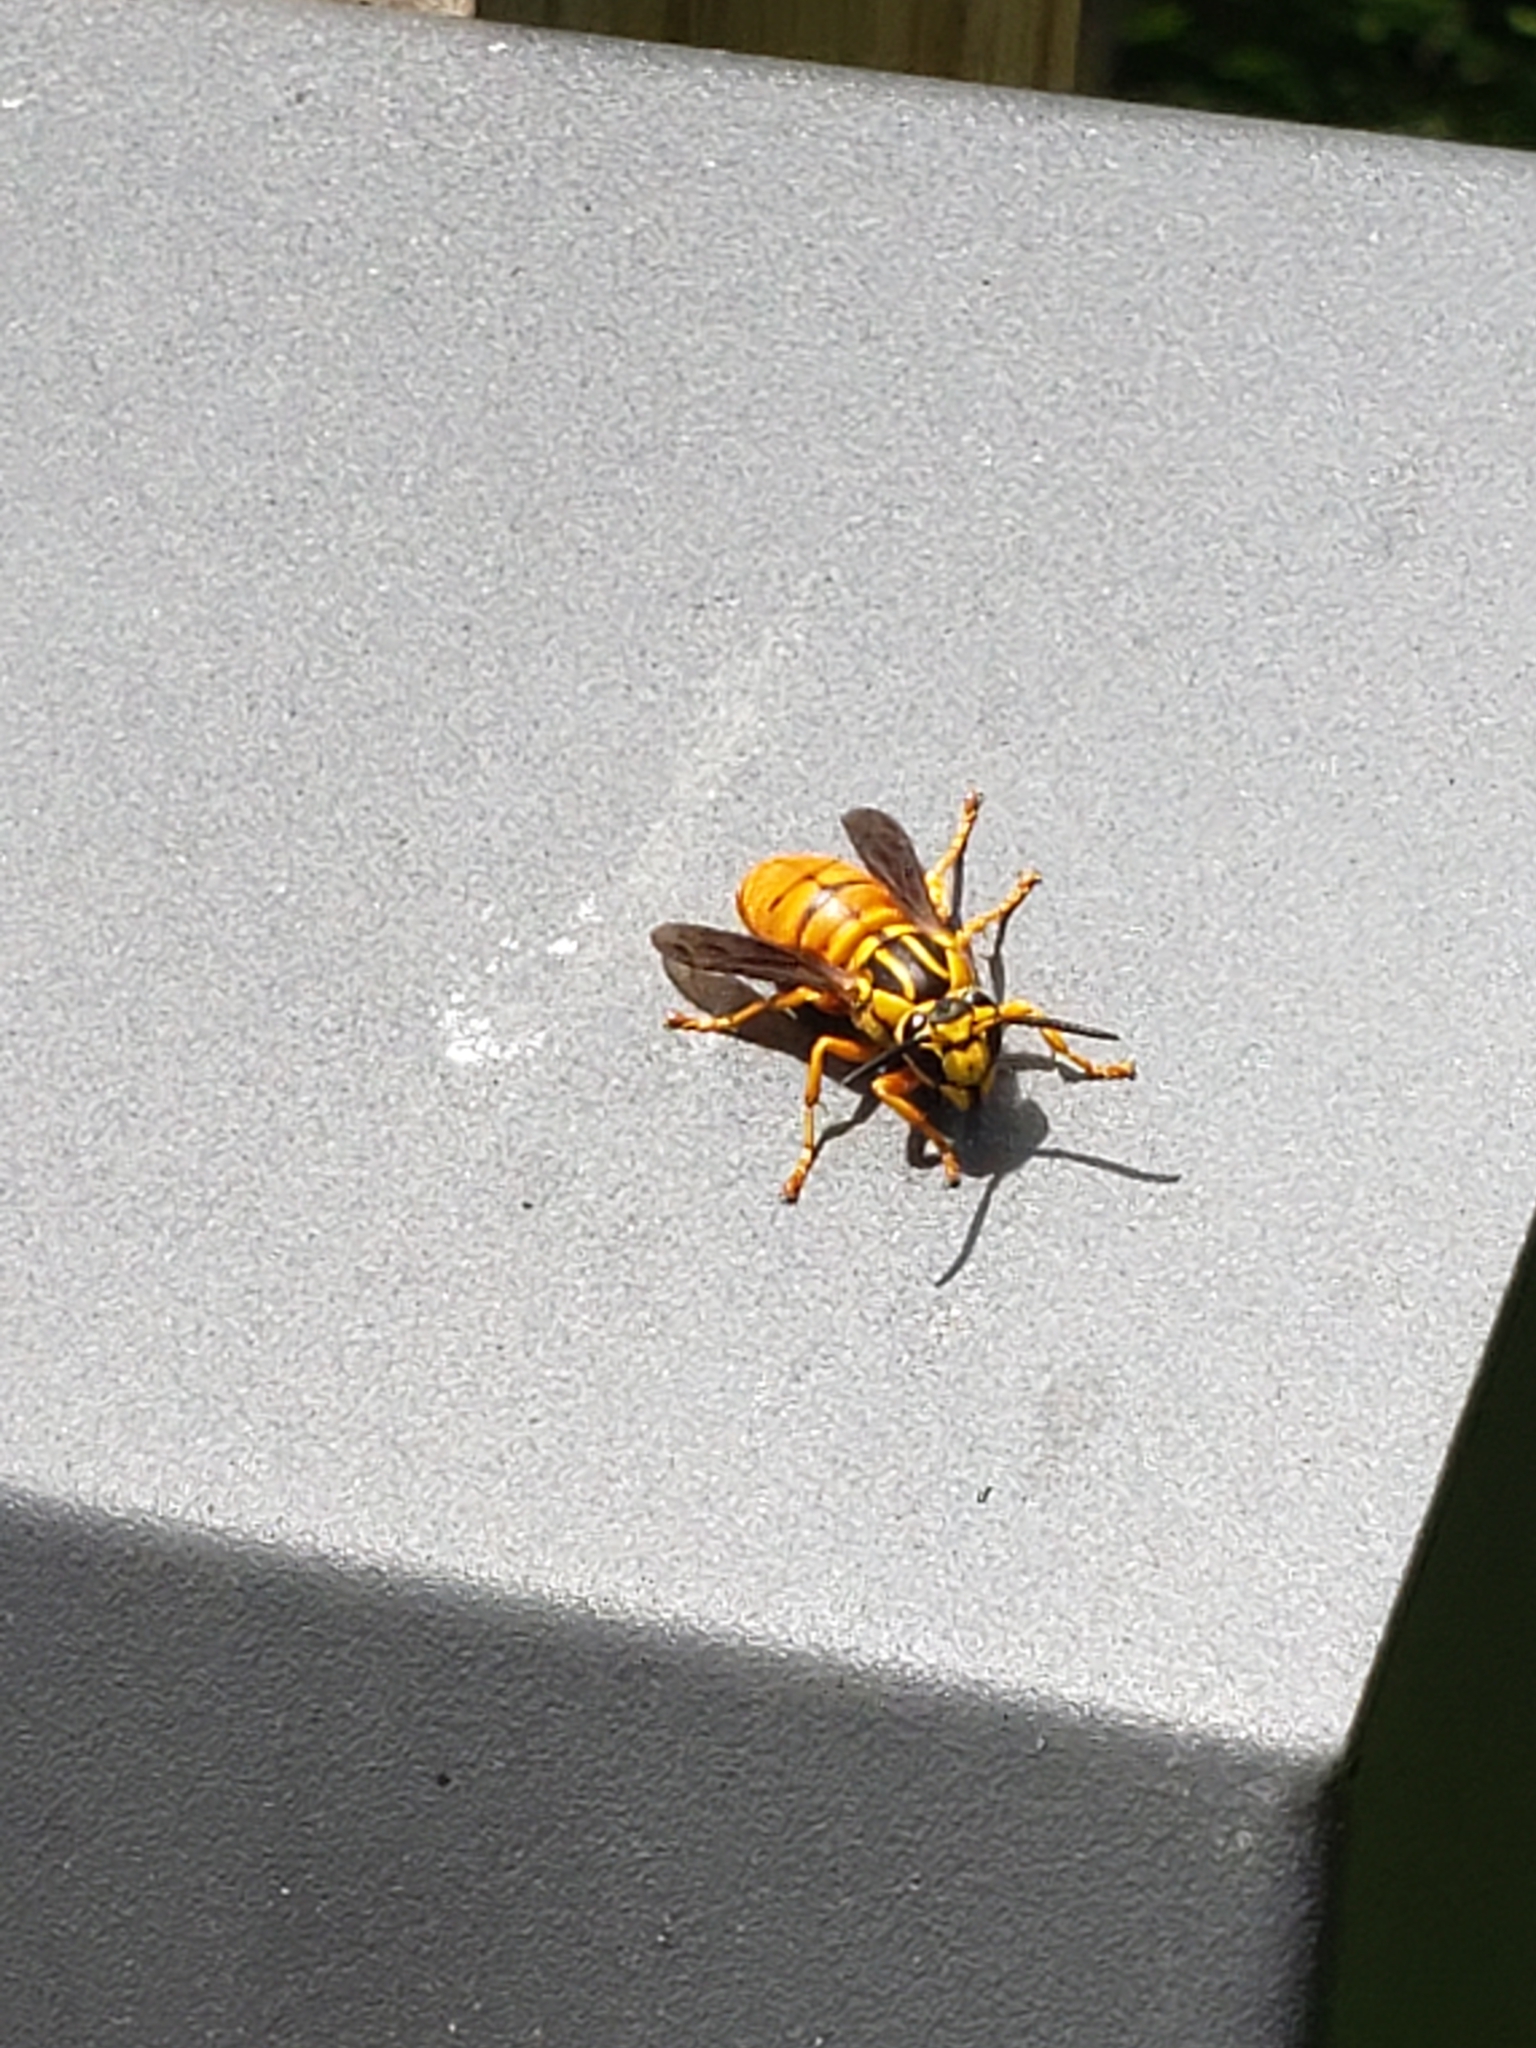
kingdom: Animalia
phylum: Arthropoda
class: Insecta
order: Hymenoptera
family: Vespidae
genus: Vespula
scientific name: Vespula squamosa
